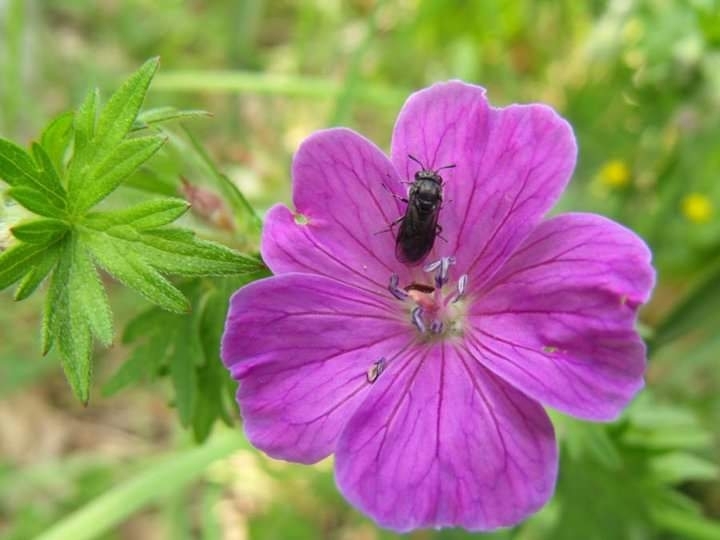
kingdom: Plantae
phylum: Tracheophyta
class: Magnoliopsida
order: Geraniales
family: Geraniaceae
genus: Geranium
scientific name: Geranium sanguineum
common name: Bloody crane's-bill
